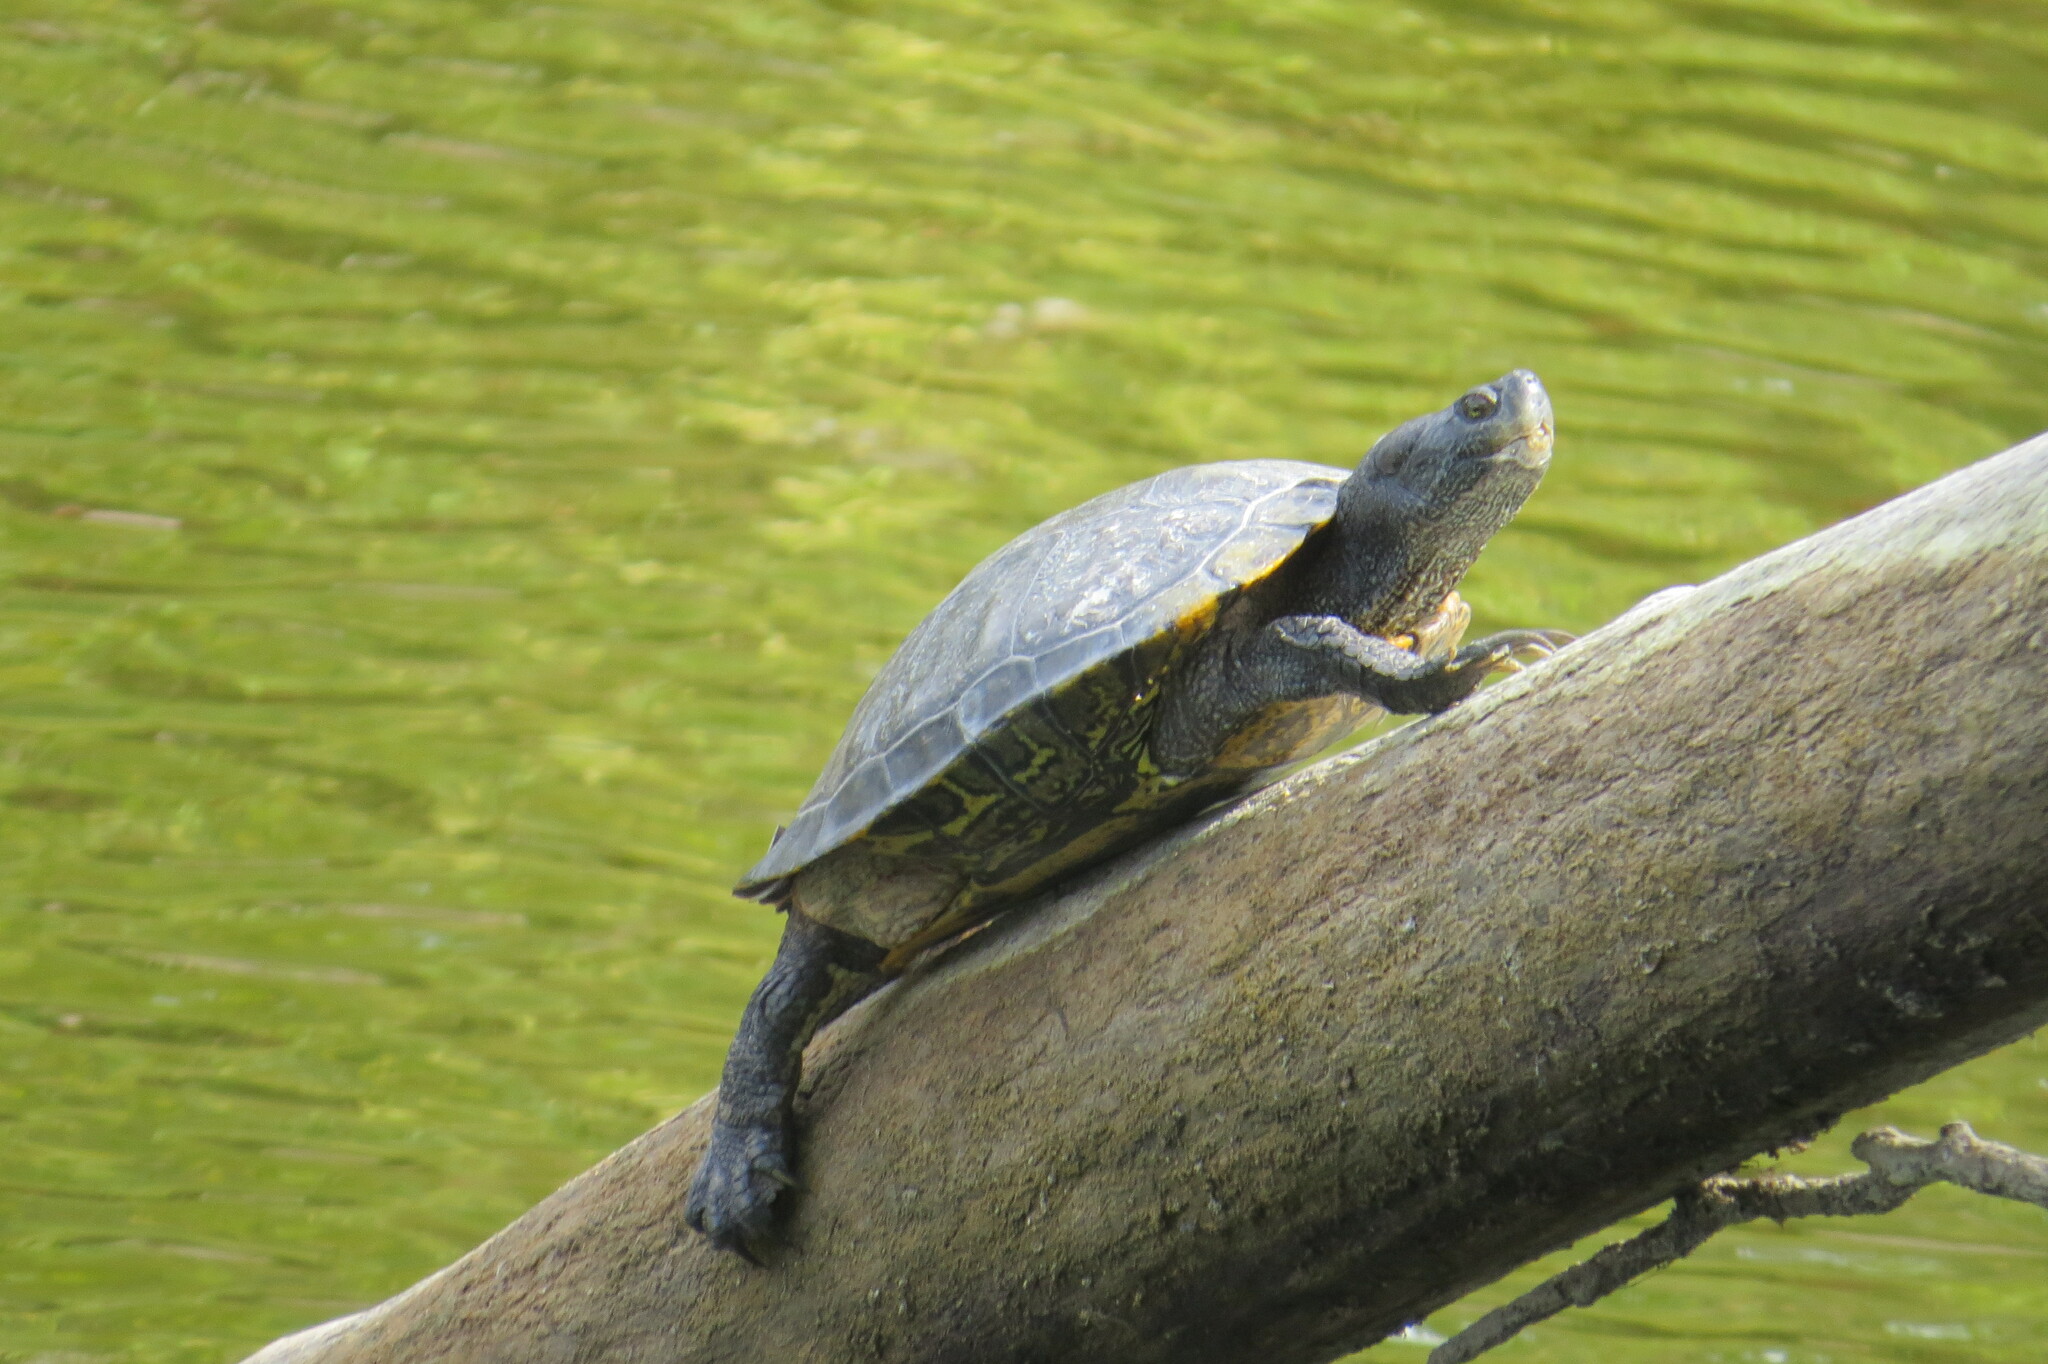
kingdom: Animalia
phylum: Chordata
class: Testudines
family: Emydidae
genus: Trachemys
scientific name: Trachemys scripta
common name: Slider
